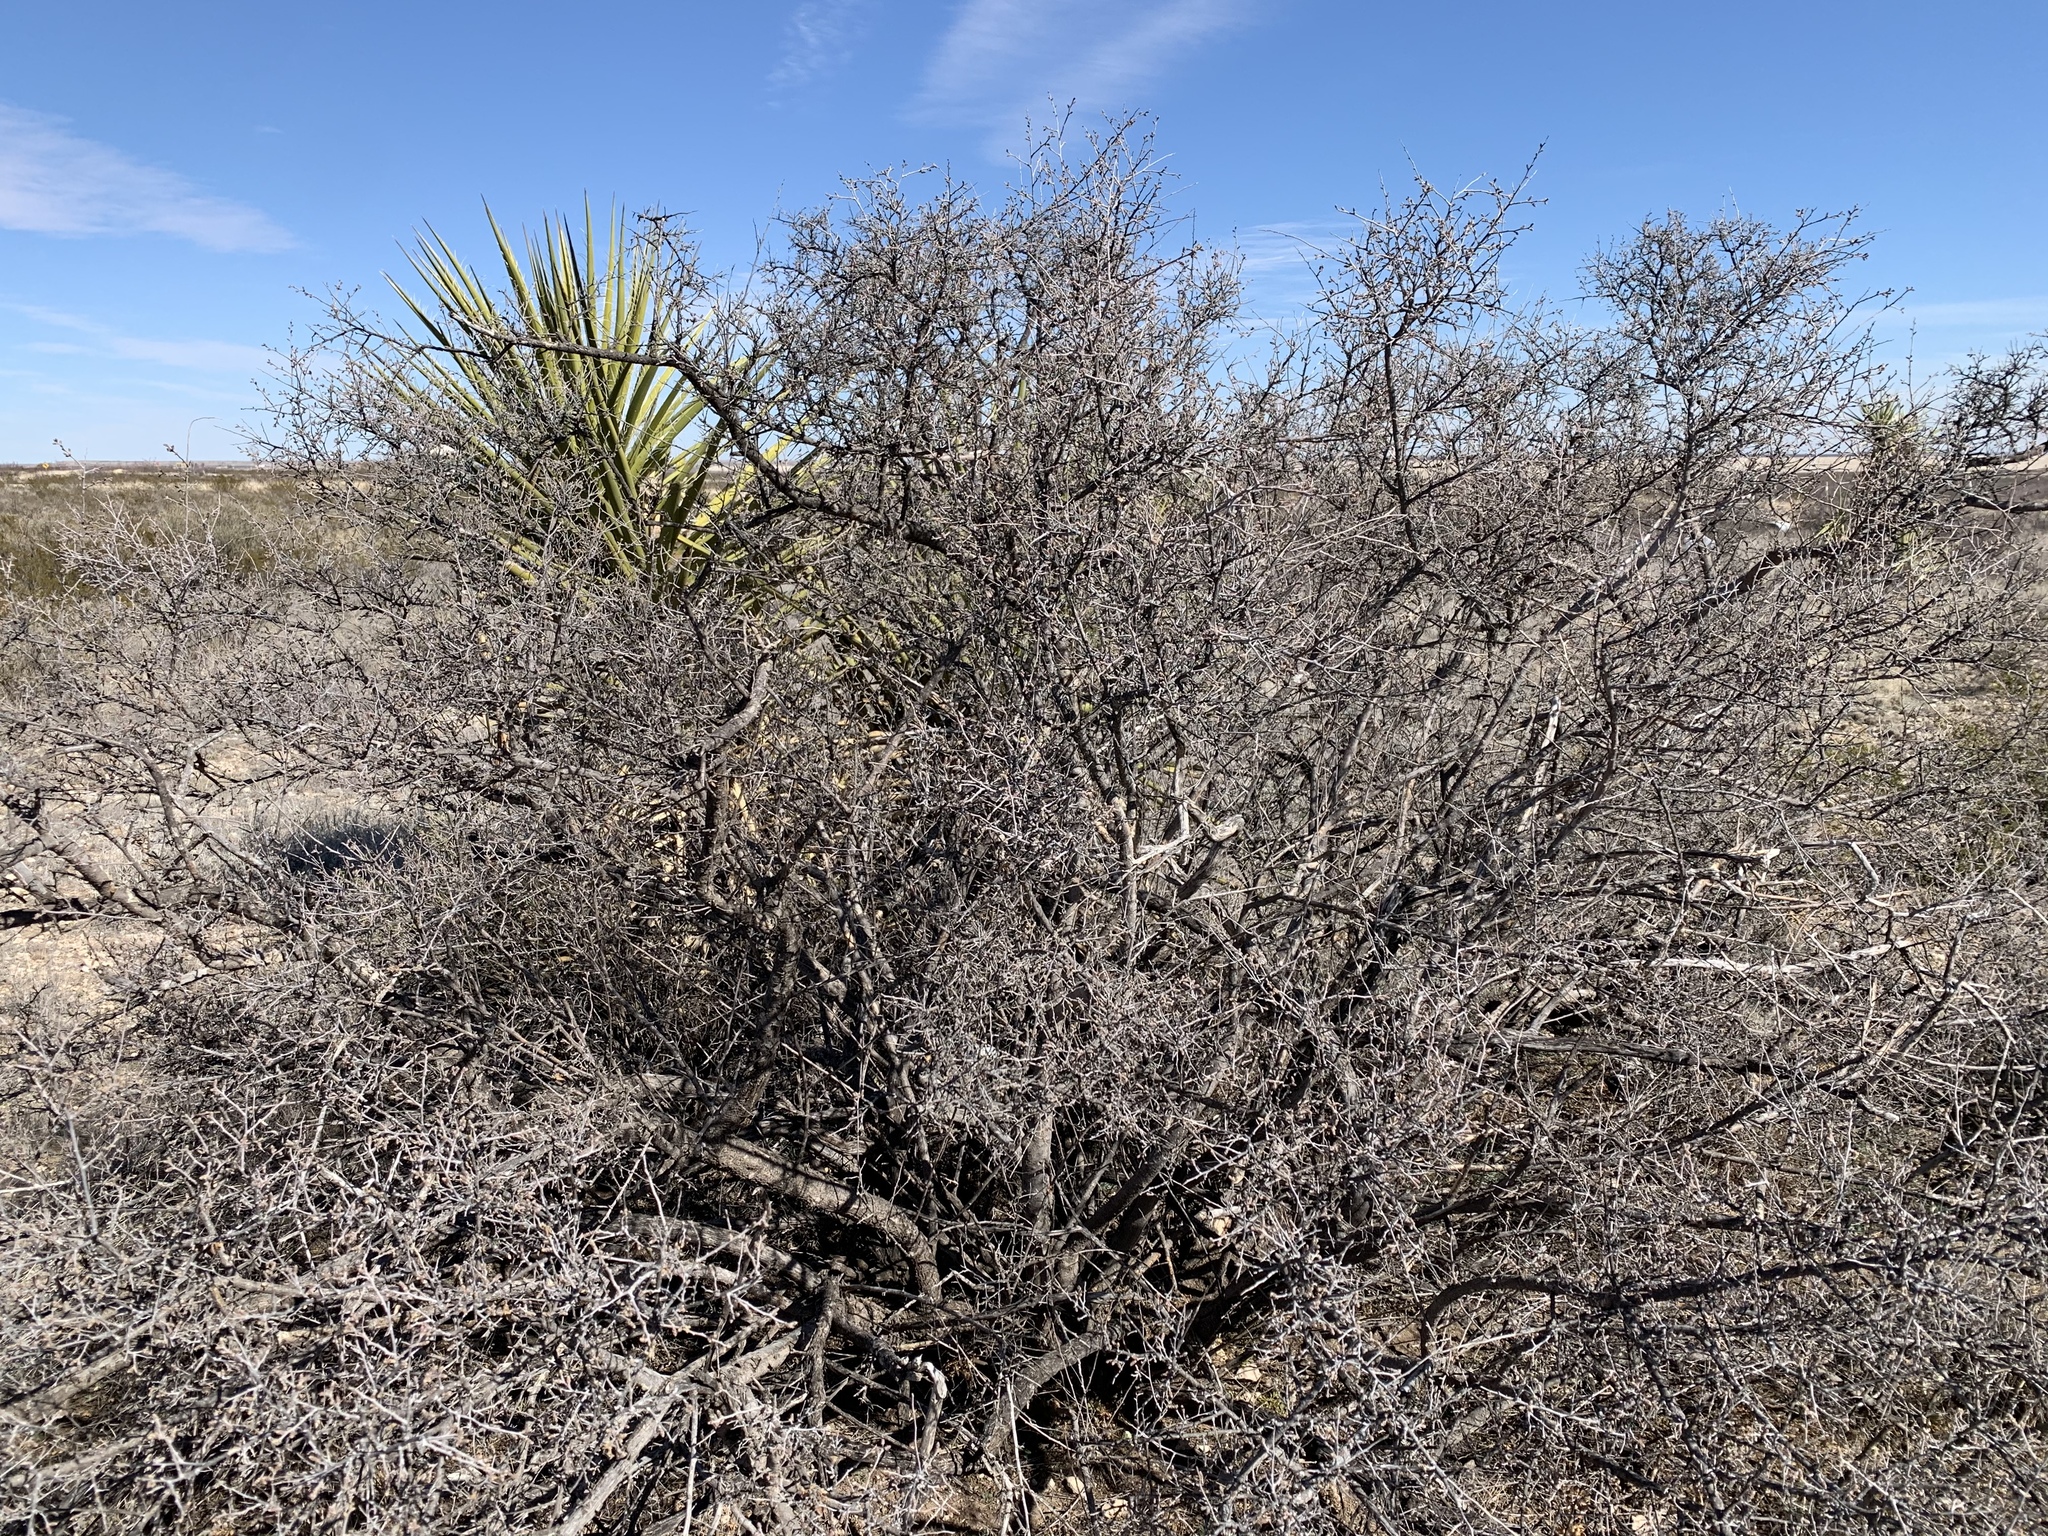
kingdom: Plantae
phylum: Tracheophyta
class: Magnoliopsida
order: Sapindales
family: Anacardiaceae
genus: Rhus
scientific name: Rhus microphylla
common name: Desert sumac
